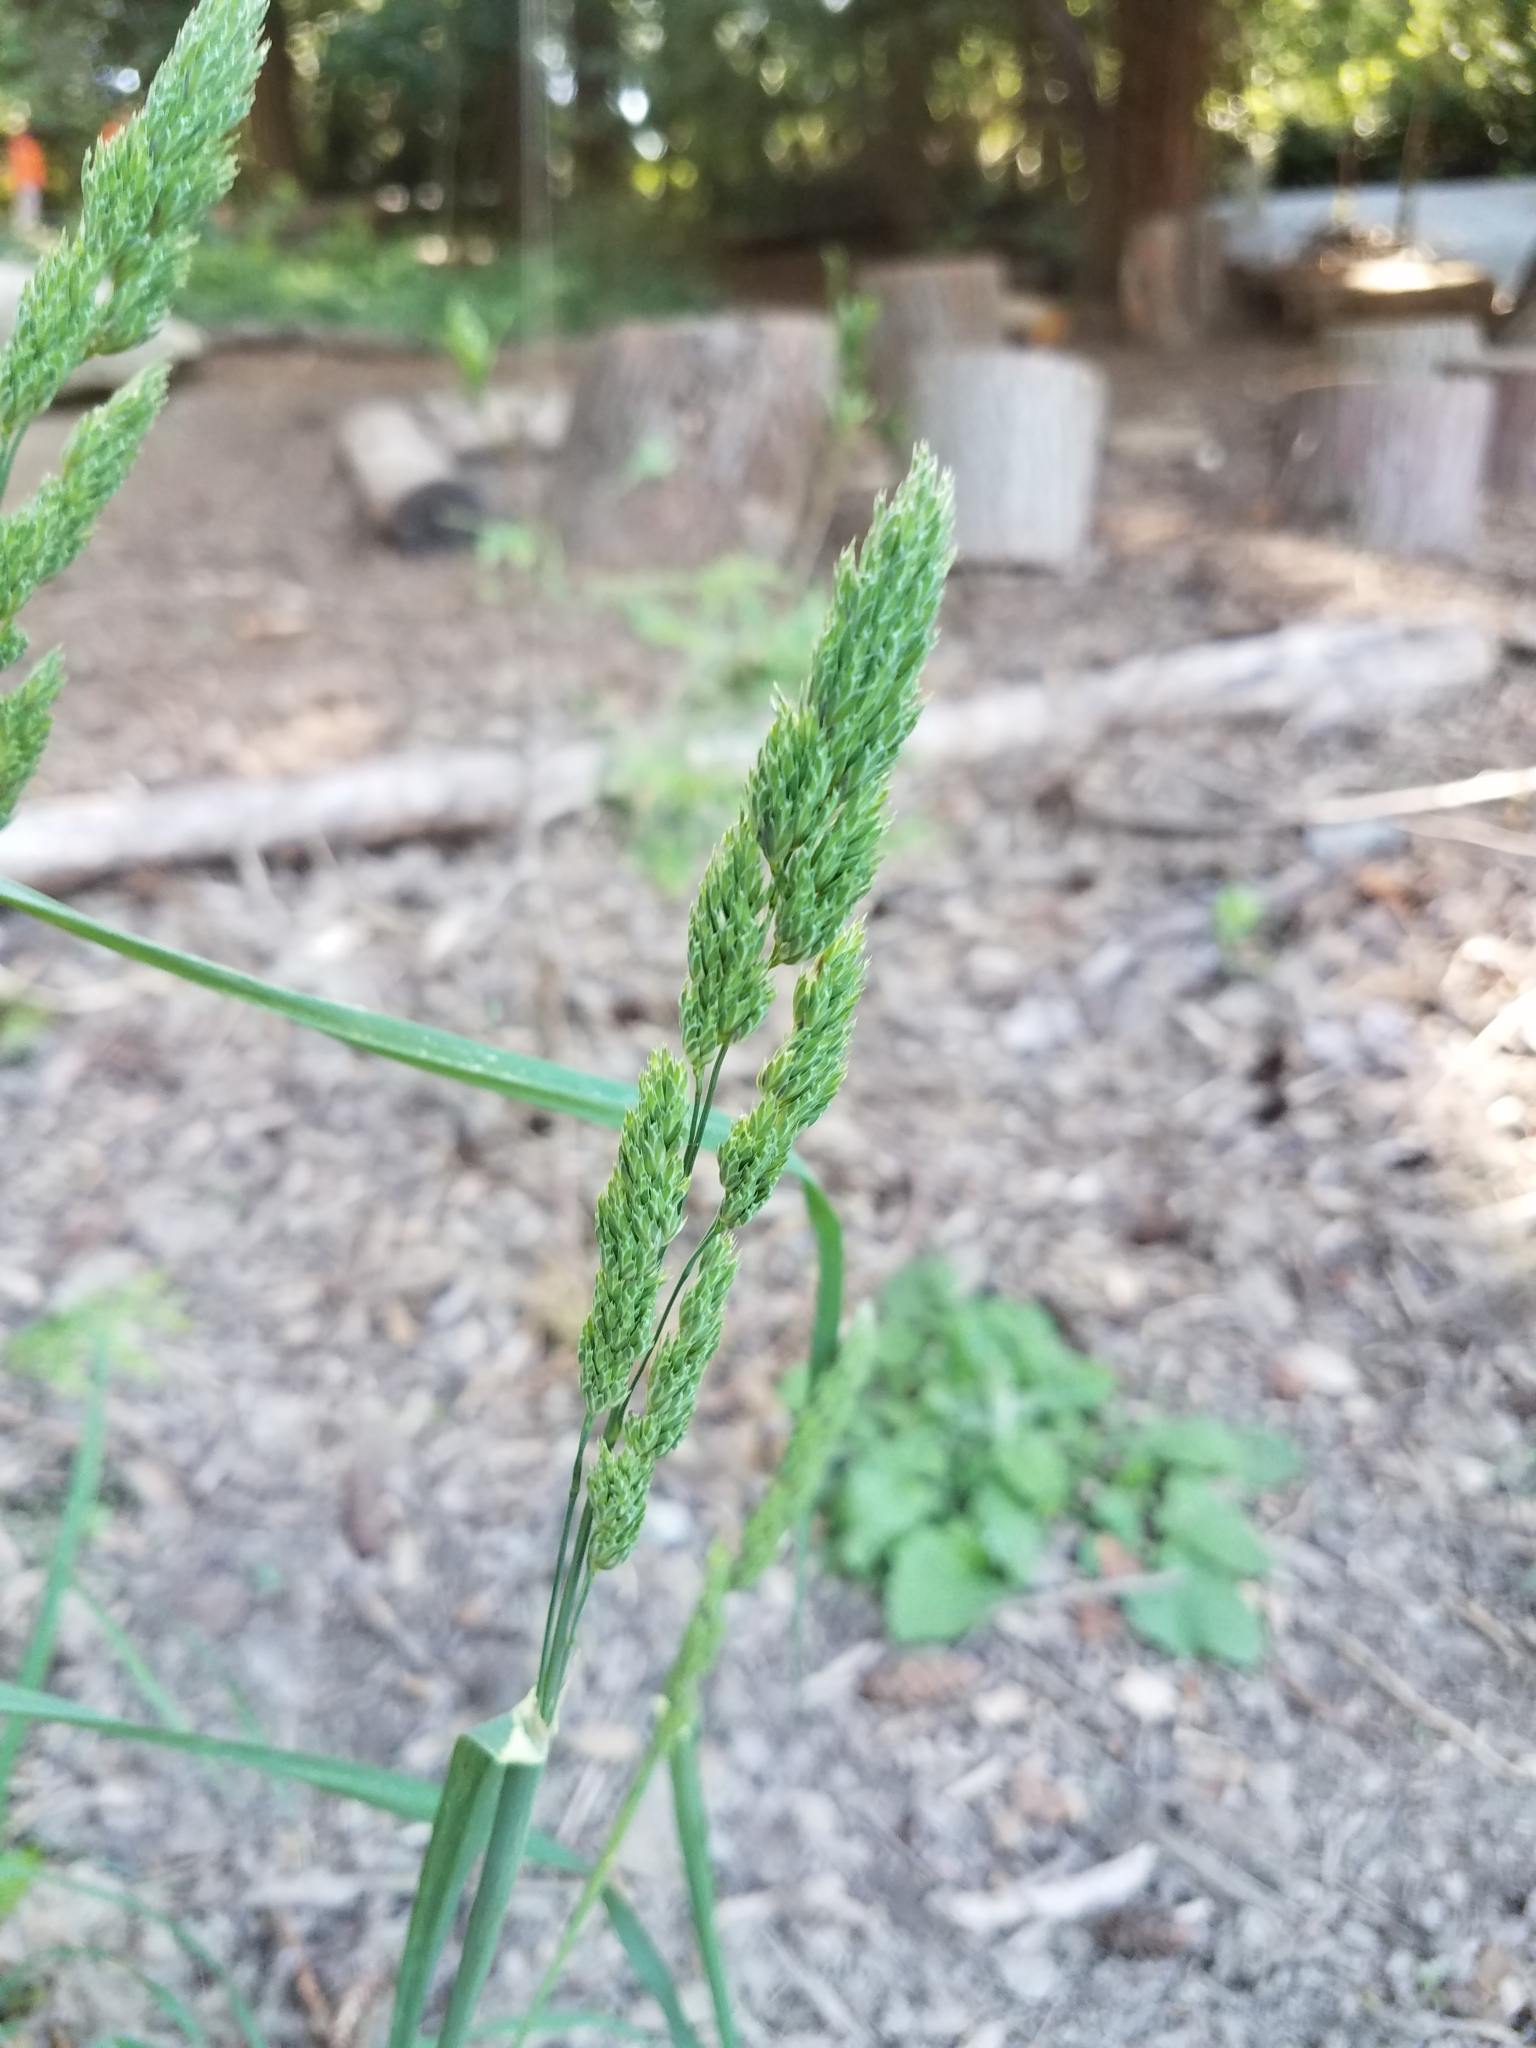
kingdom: Plantae
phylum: Tracheophyta
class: Liliopsida
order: Poales
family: Poaceae
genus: Dactylis
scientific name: Dactylis glomerata
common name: Orchardgrass
